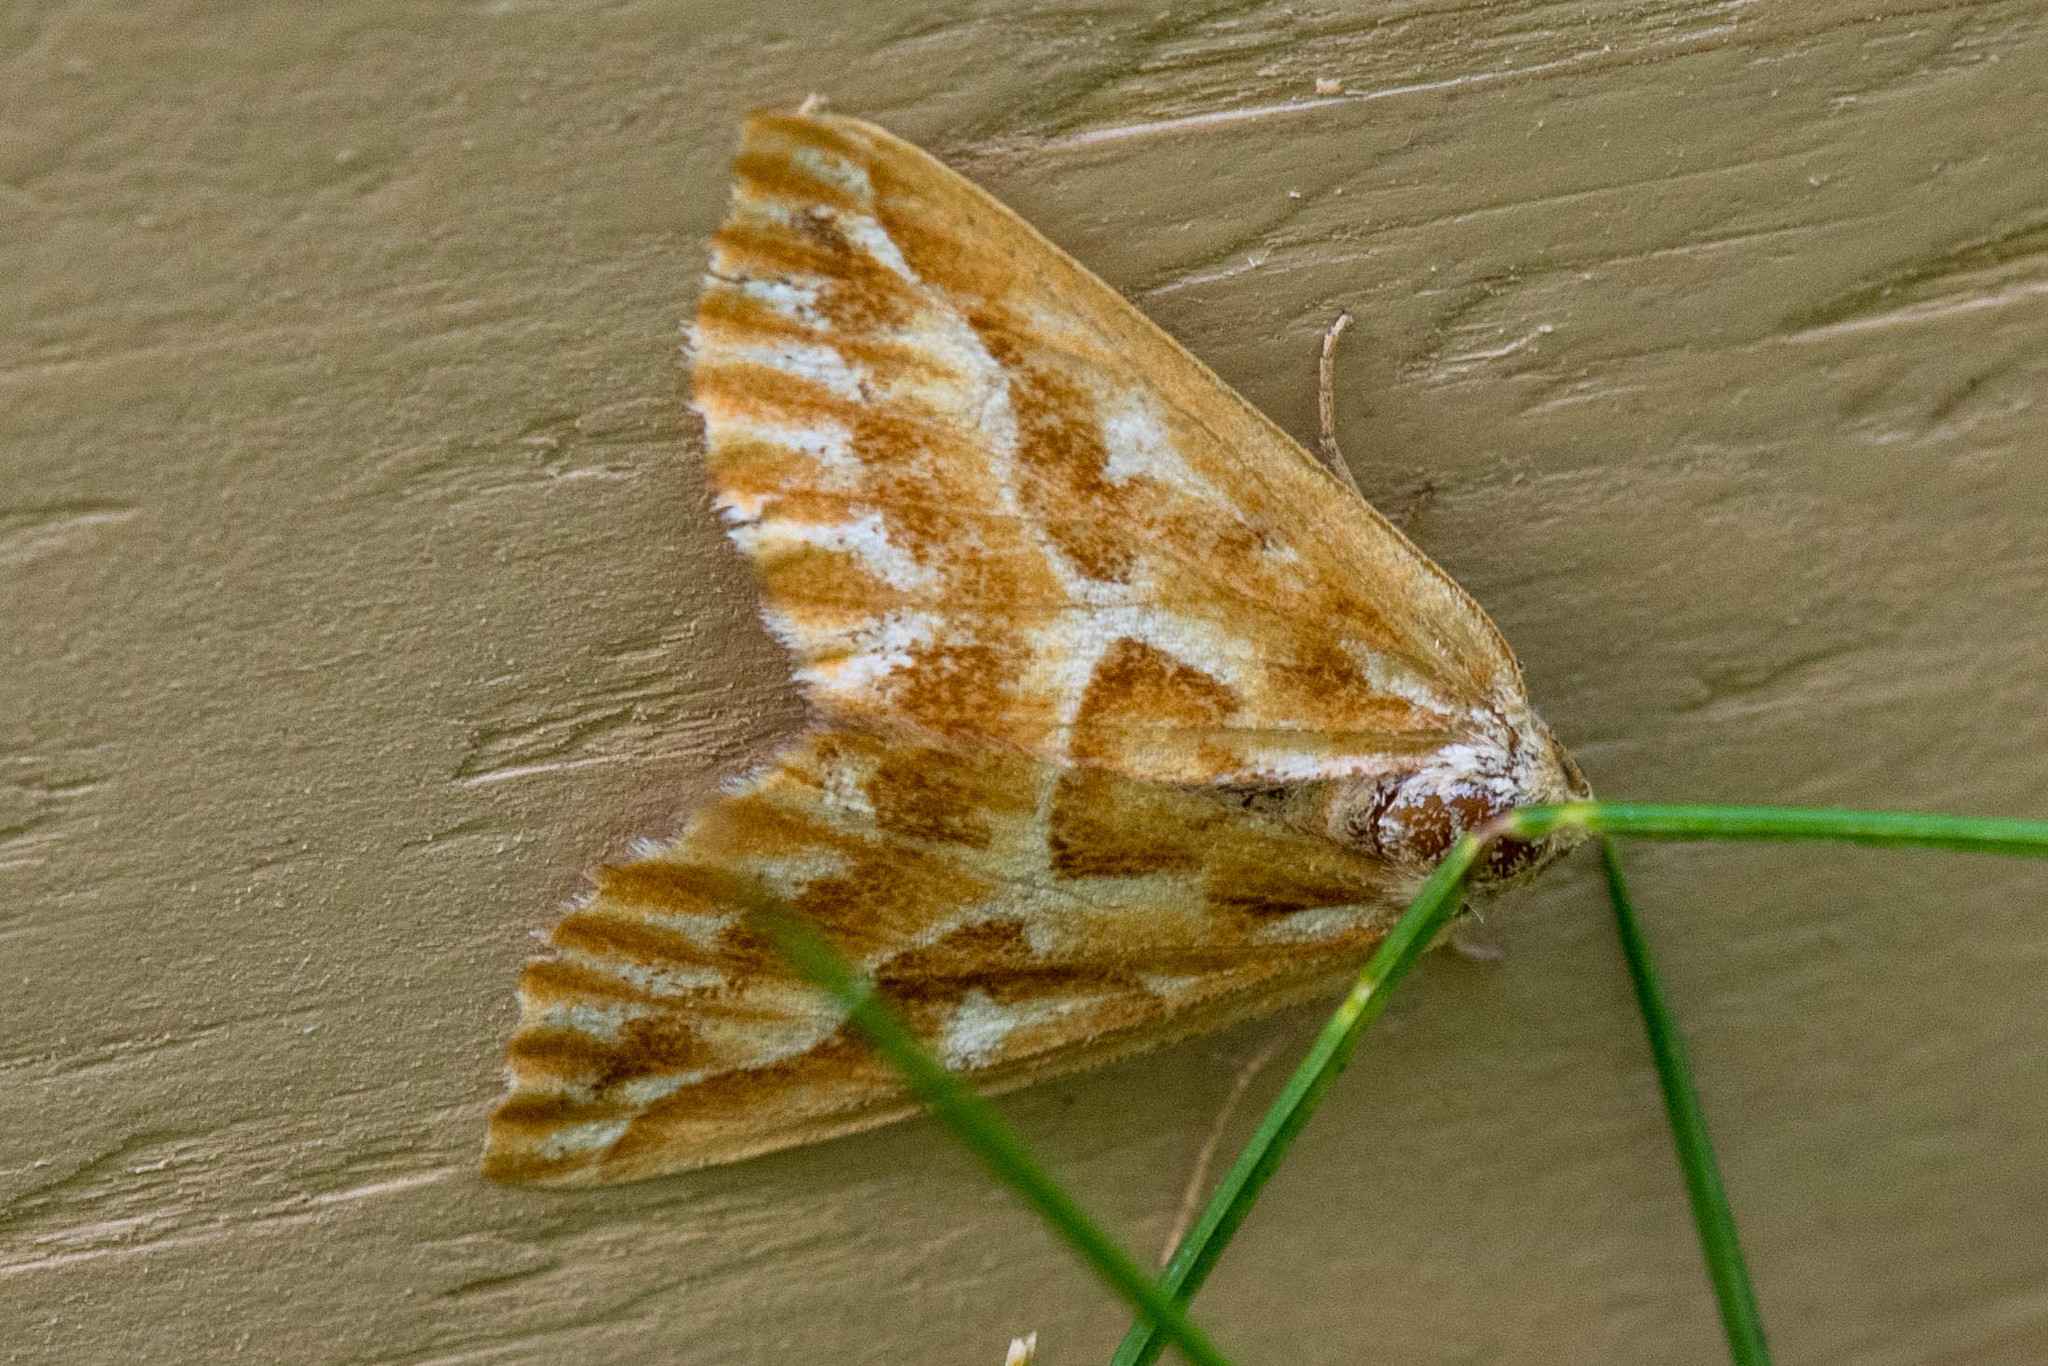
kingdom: Animalia
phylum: Arthropoda
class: Insecta
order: Lepidoptera
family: Geometridae
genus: Caripeta
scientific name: Caripeta piniata
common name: Northern pine looper moth
